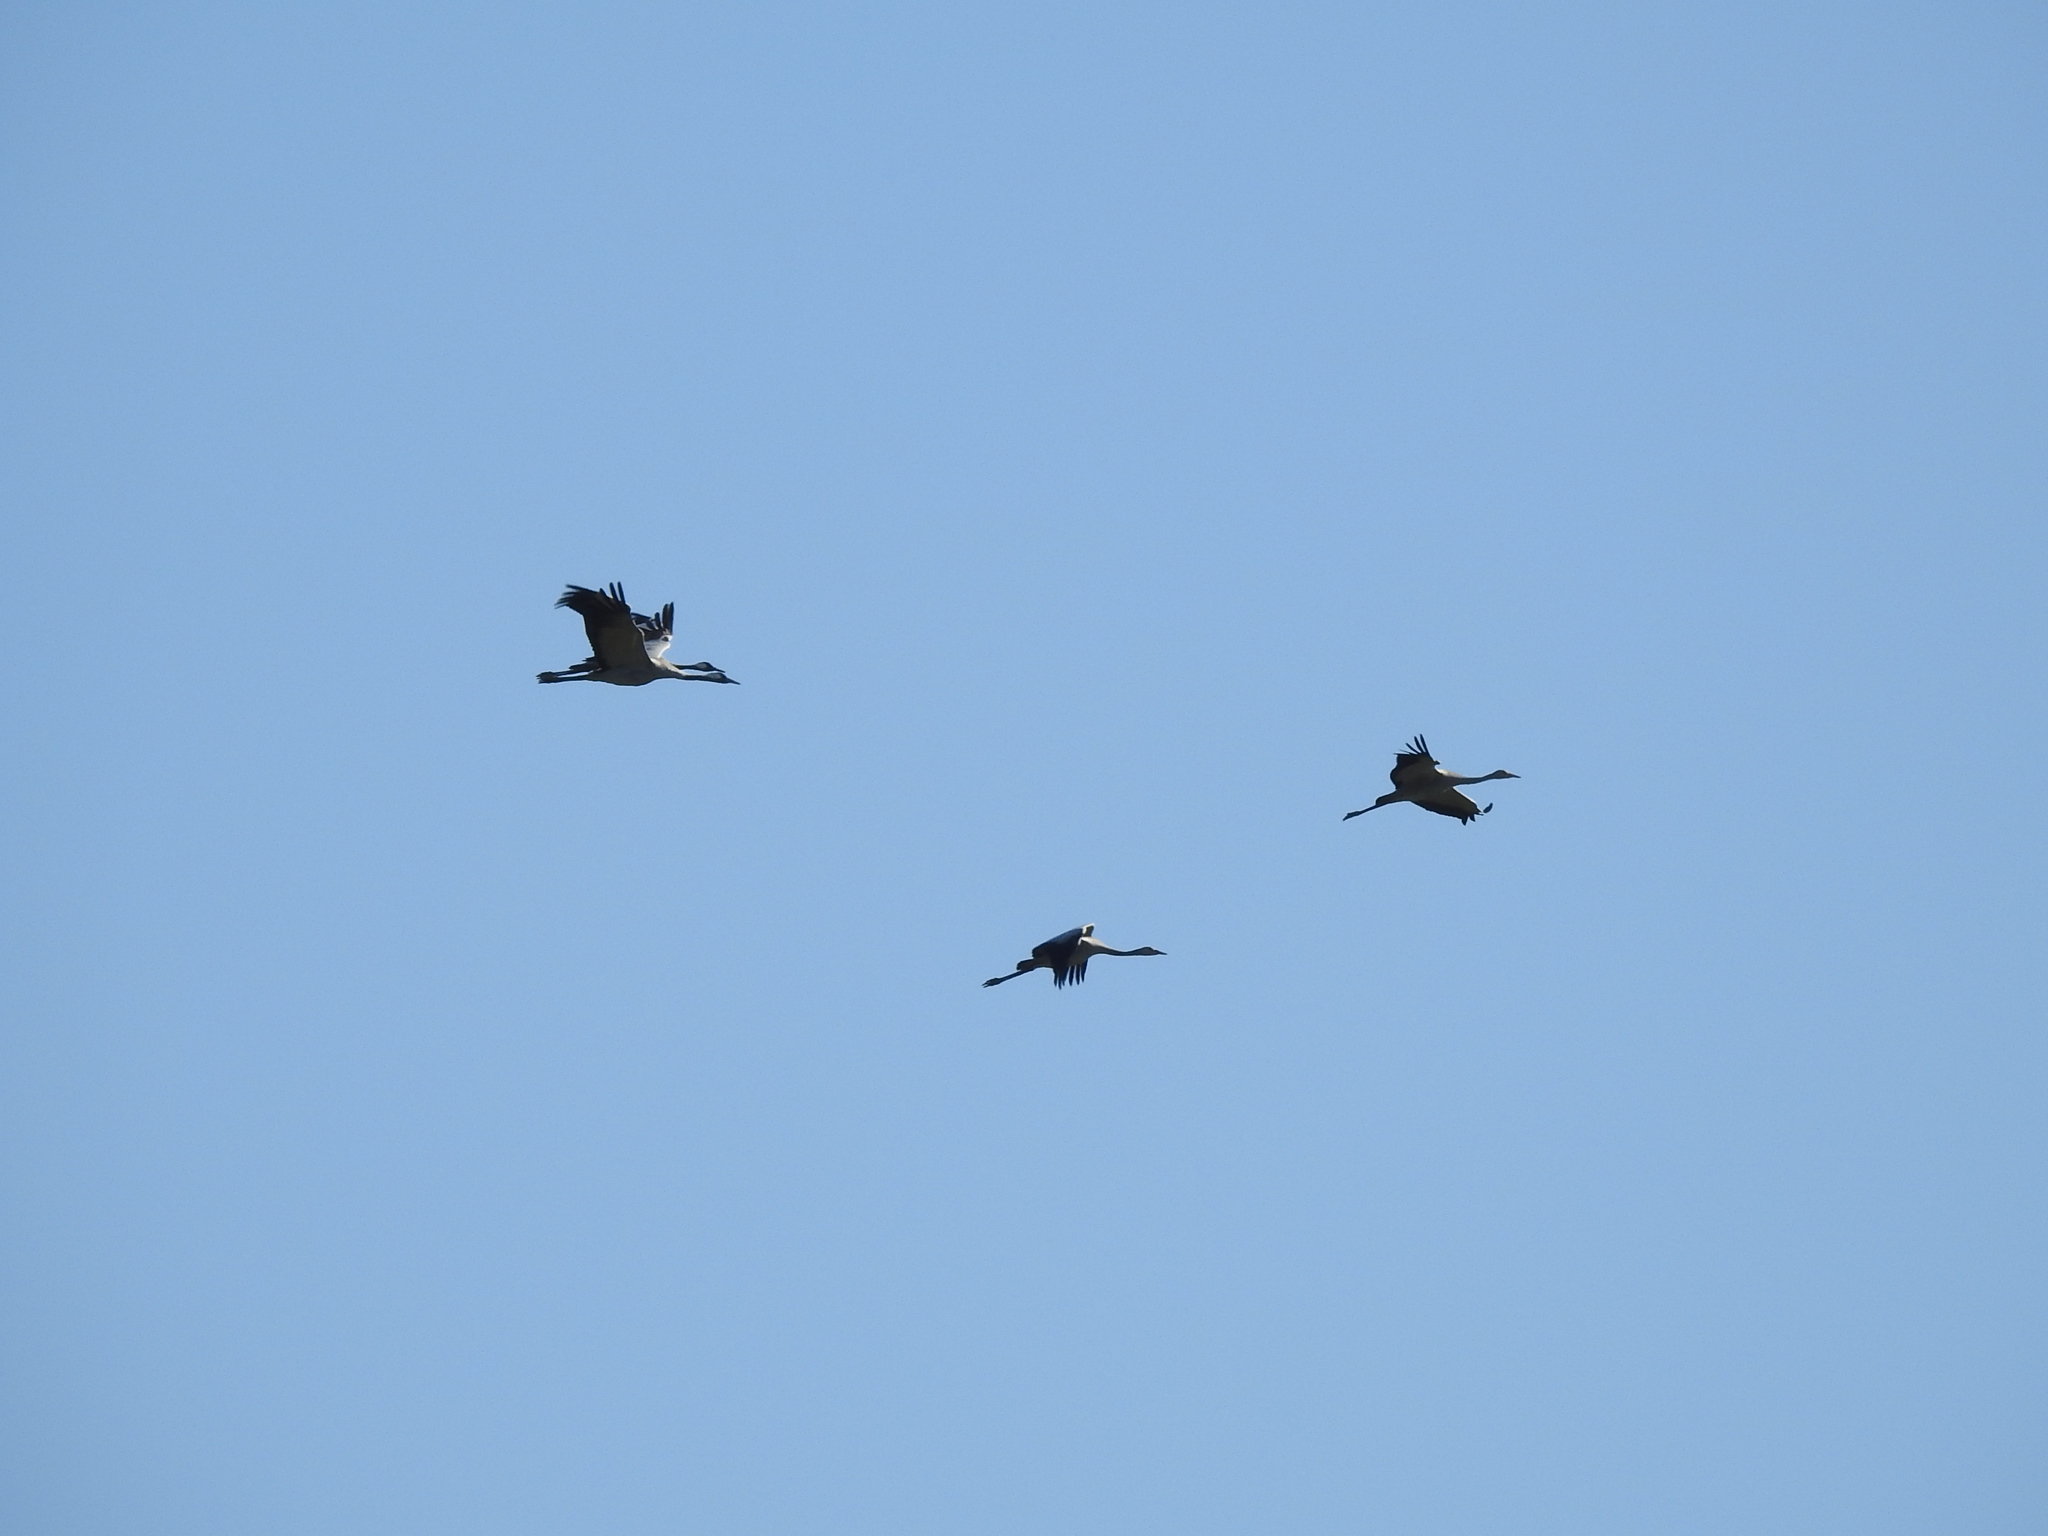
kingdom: Animalia
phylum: Chordata
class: Aves
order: Gruiformes
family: Gruidae
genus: Grus
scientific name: Grus grus
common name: Common crane
